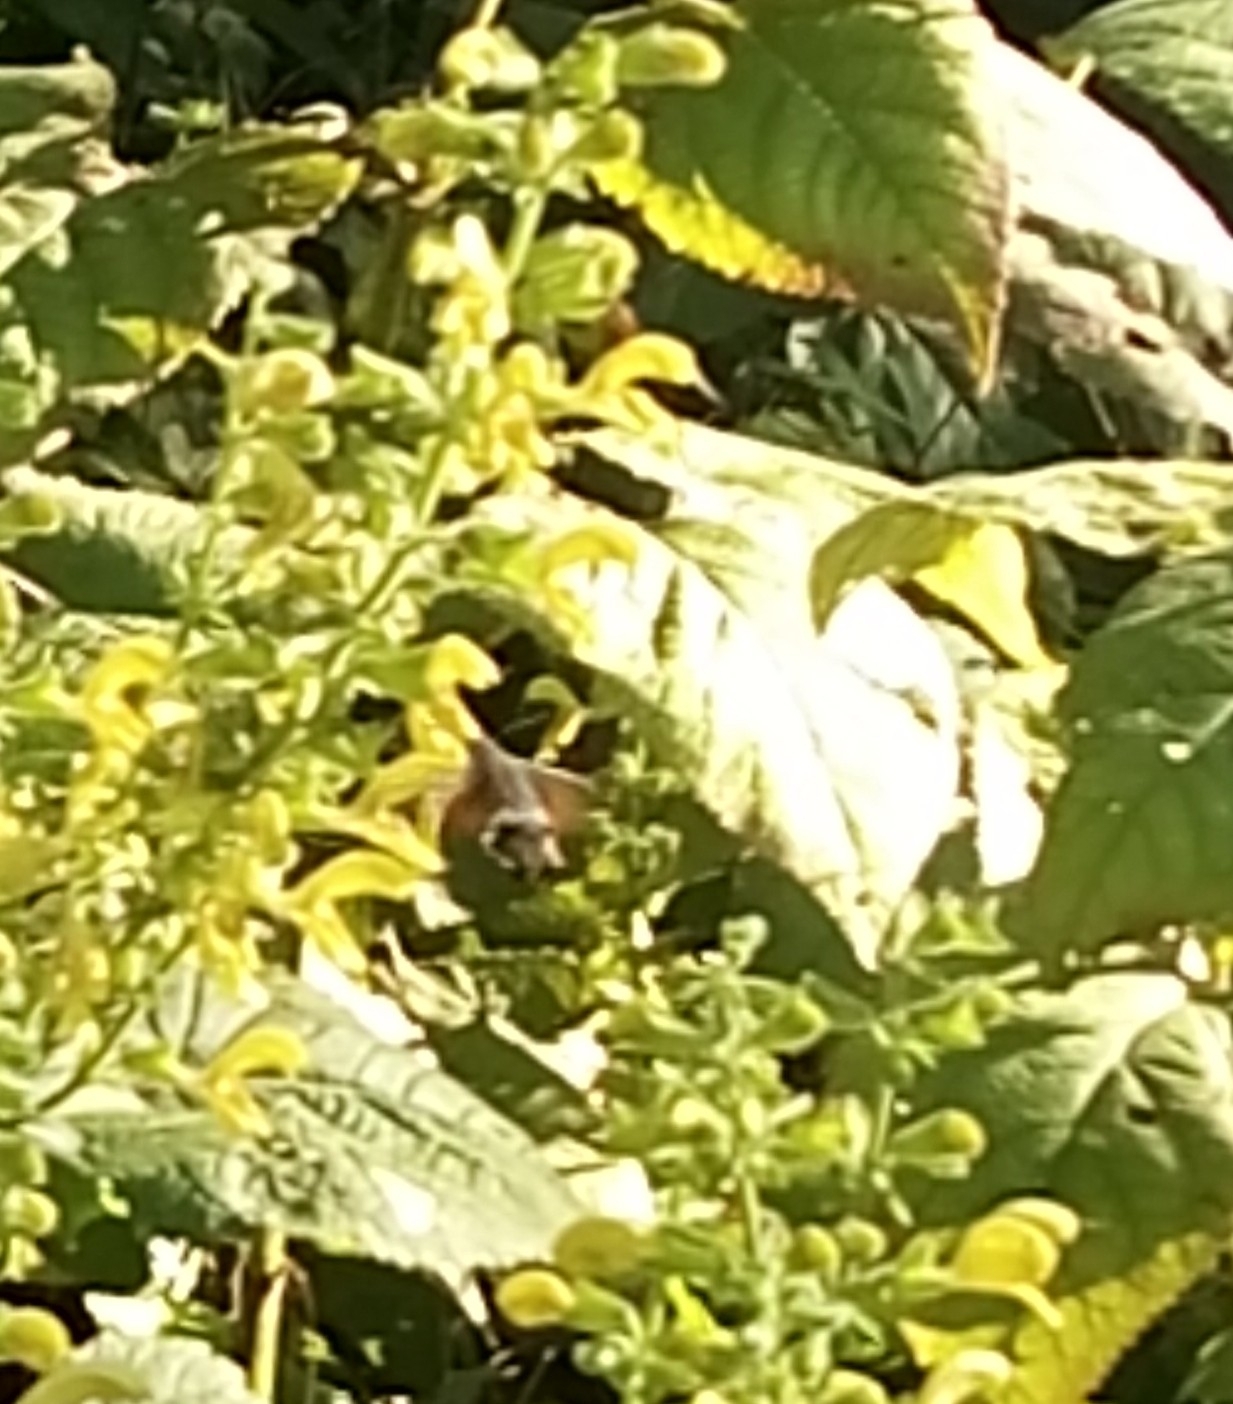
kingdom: Animalia
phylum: Arthropoda
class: Insecta
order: Lepidoptera
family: Sphingidae
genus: Macroglossum
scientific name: Macroglossum stellatarum
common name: Humming-bird hawk-moth
